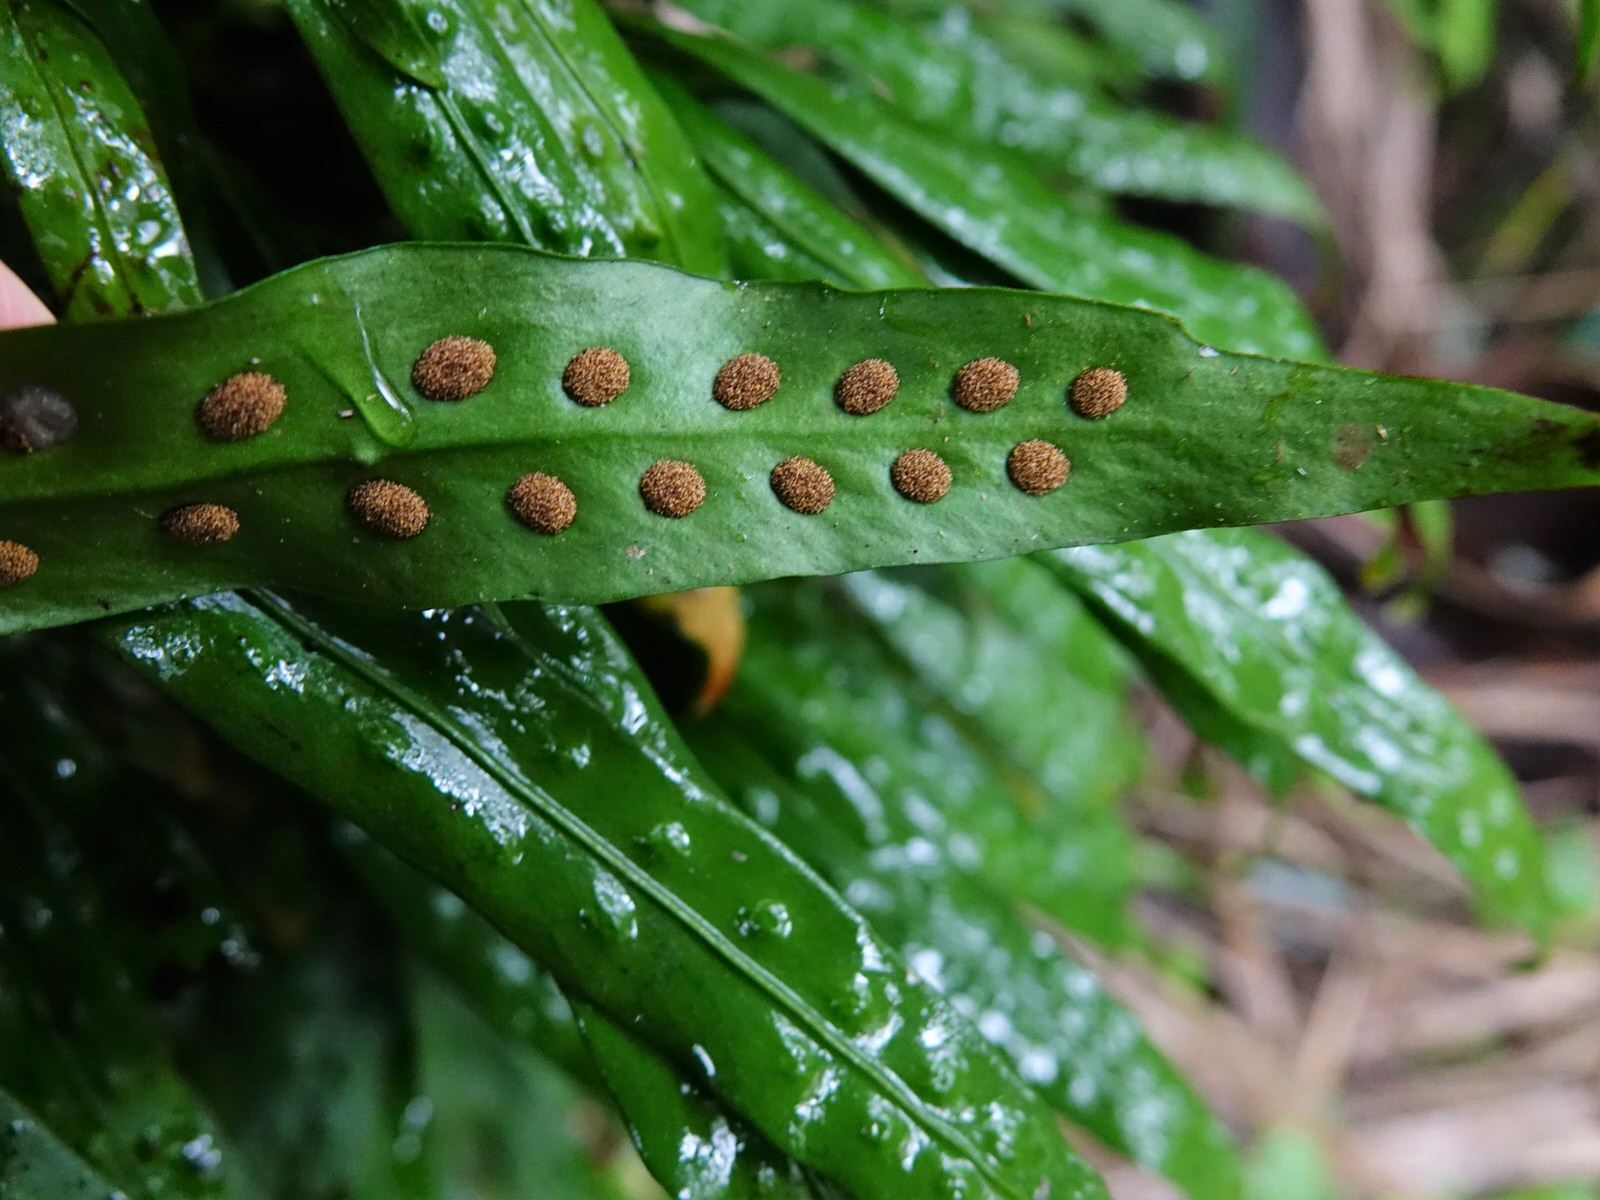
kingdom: Plantae
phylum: Tracheophyta
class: Polypodiopsida
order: Polypodiales
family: Polypodiaceae
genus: Loxogramme
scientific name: Loxogramme dictyopteris
